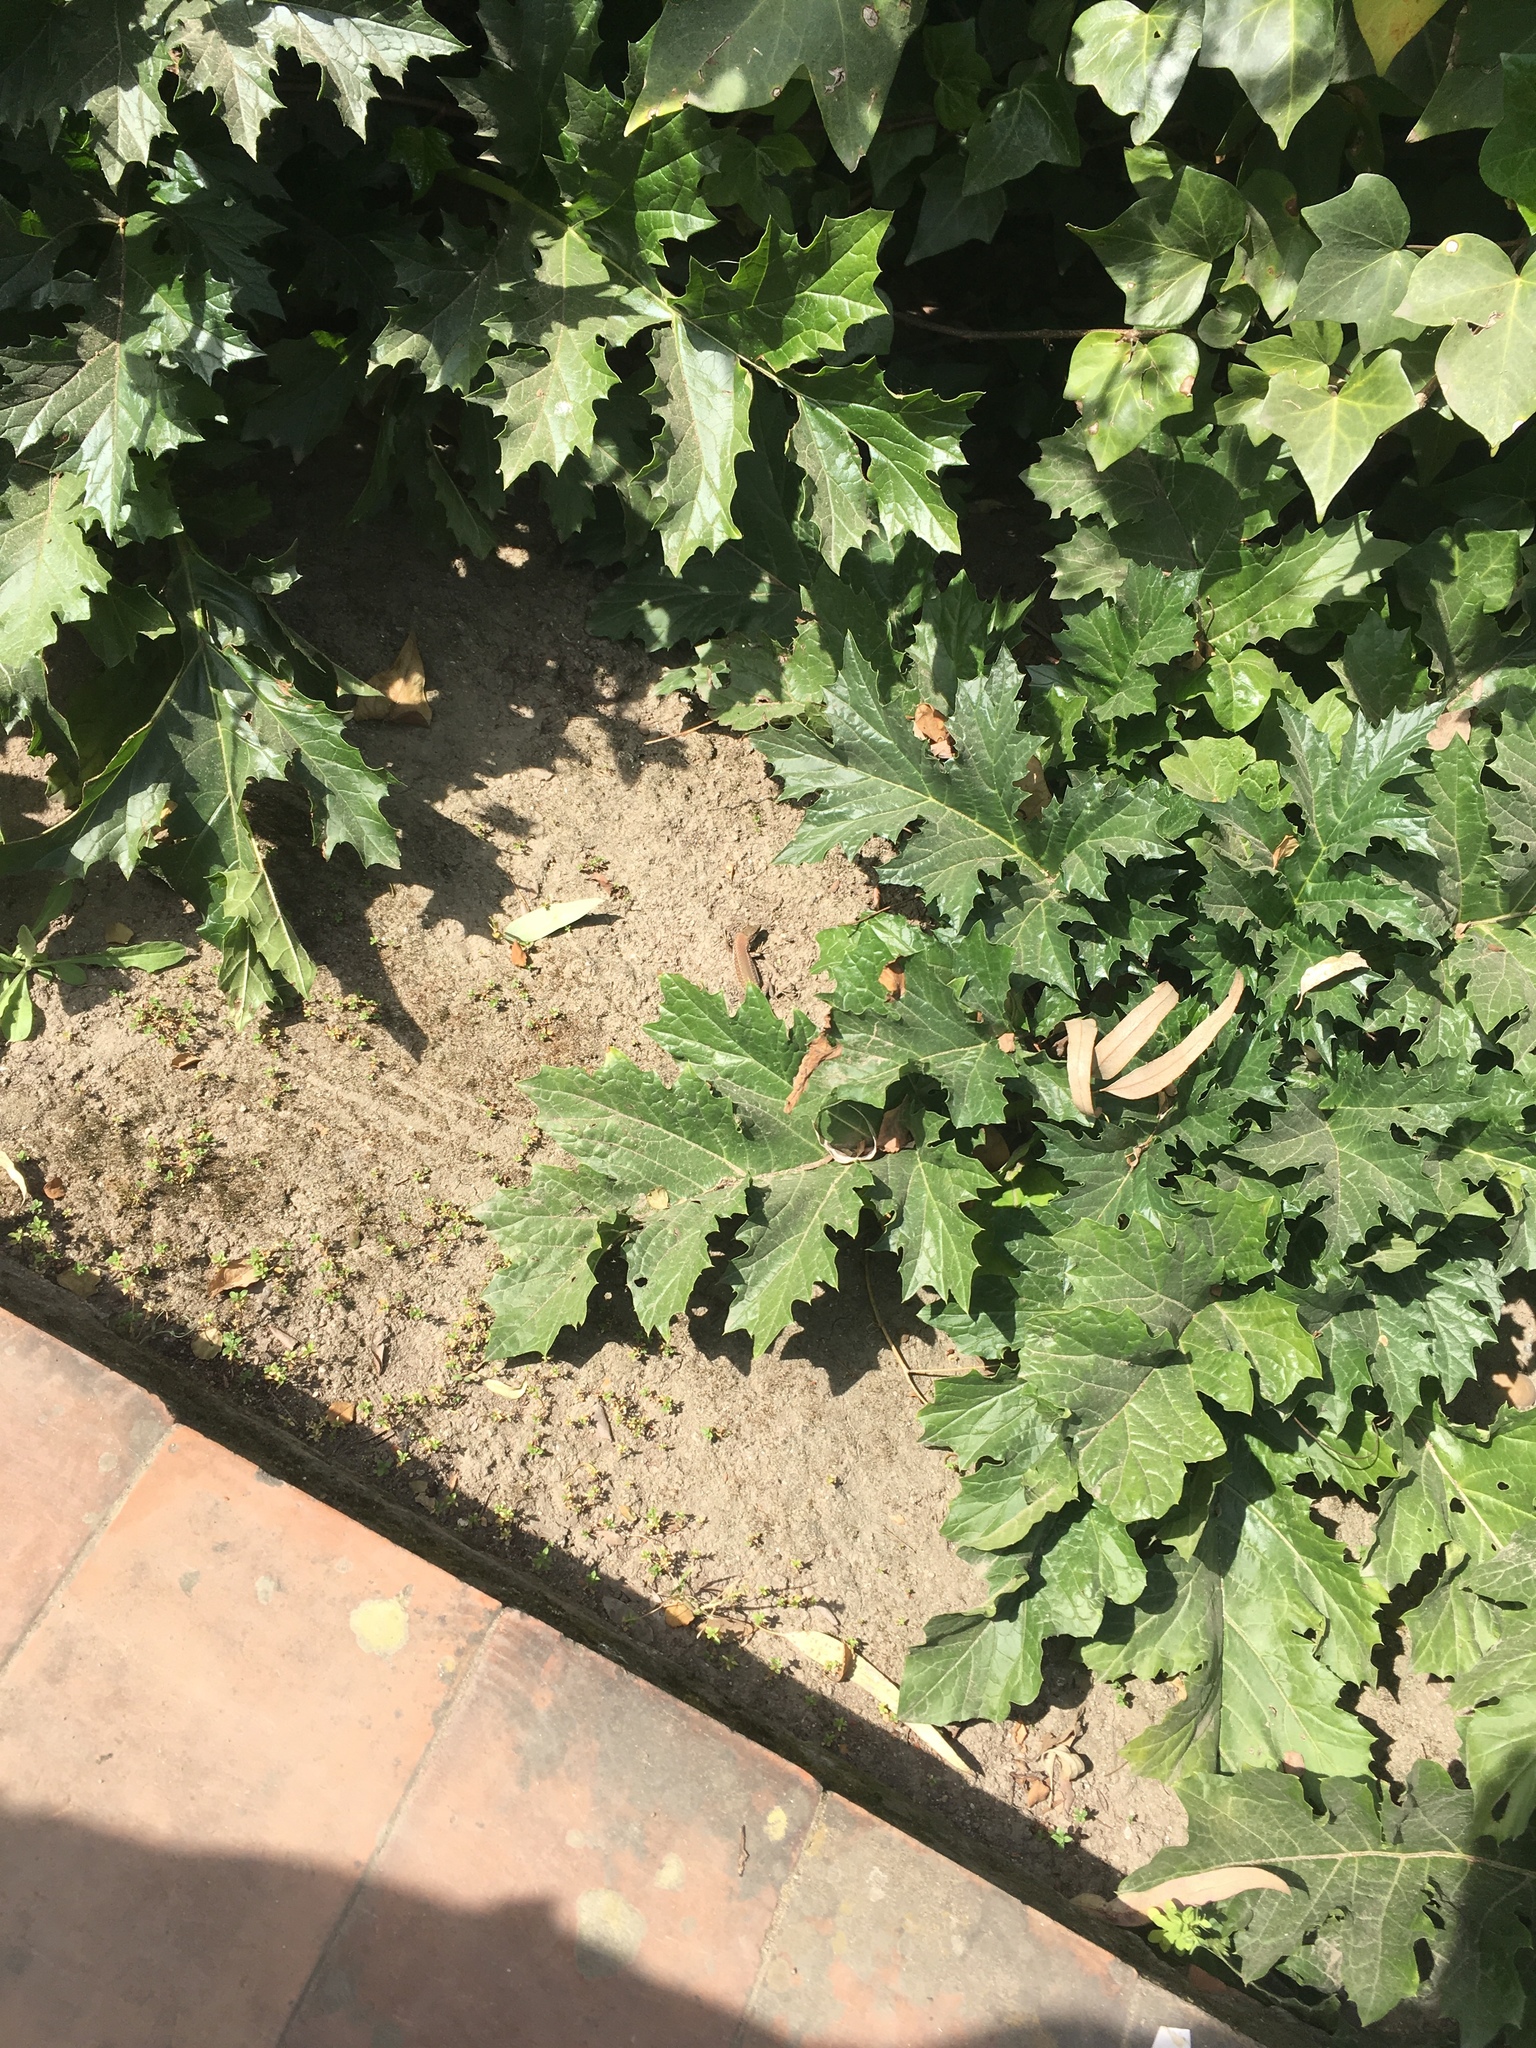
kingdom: Animalia
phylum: Chordata
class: Squamata
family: Lacertidae
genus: Podarcis
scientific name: Podarcis vaucheri
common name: Vaucher's wall lizard
